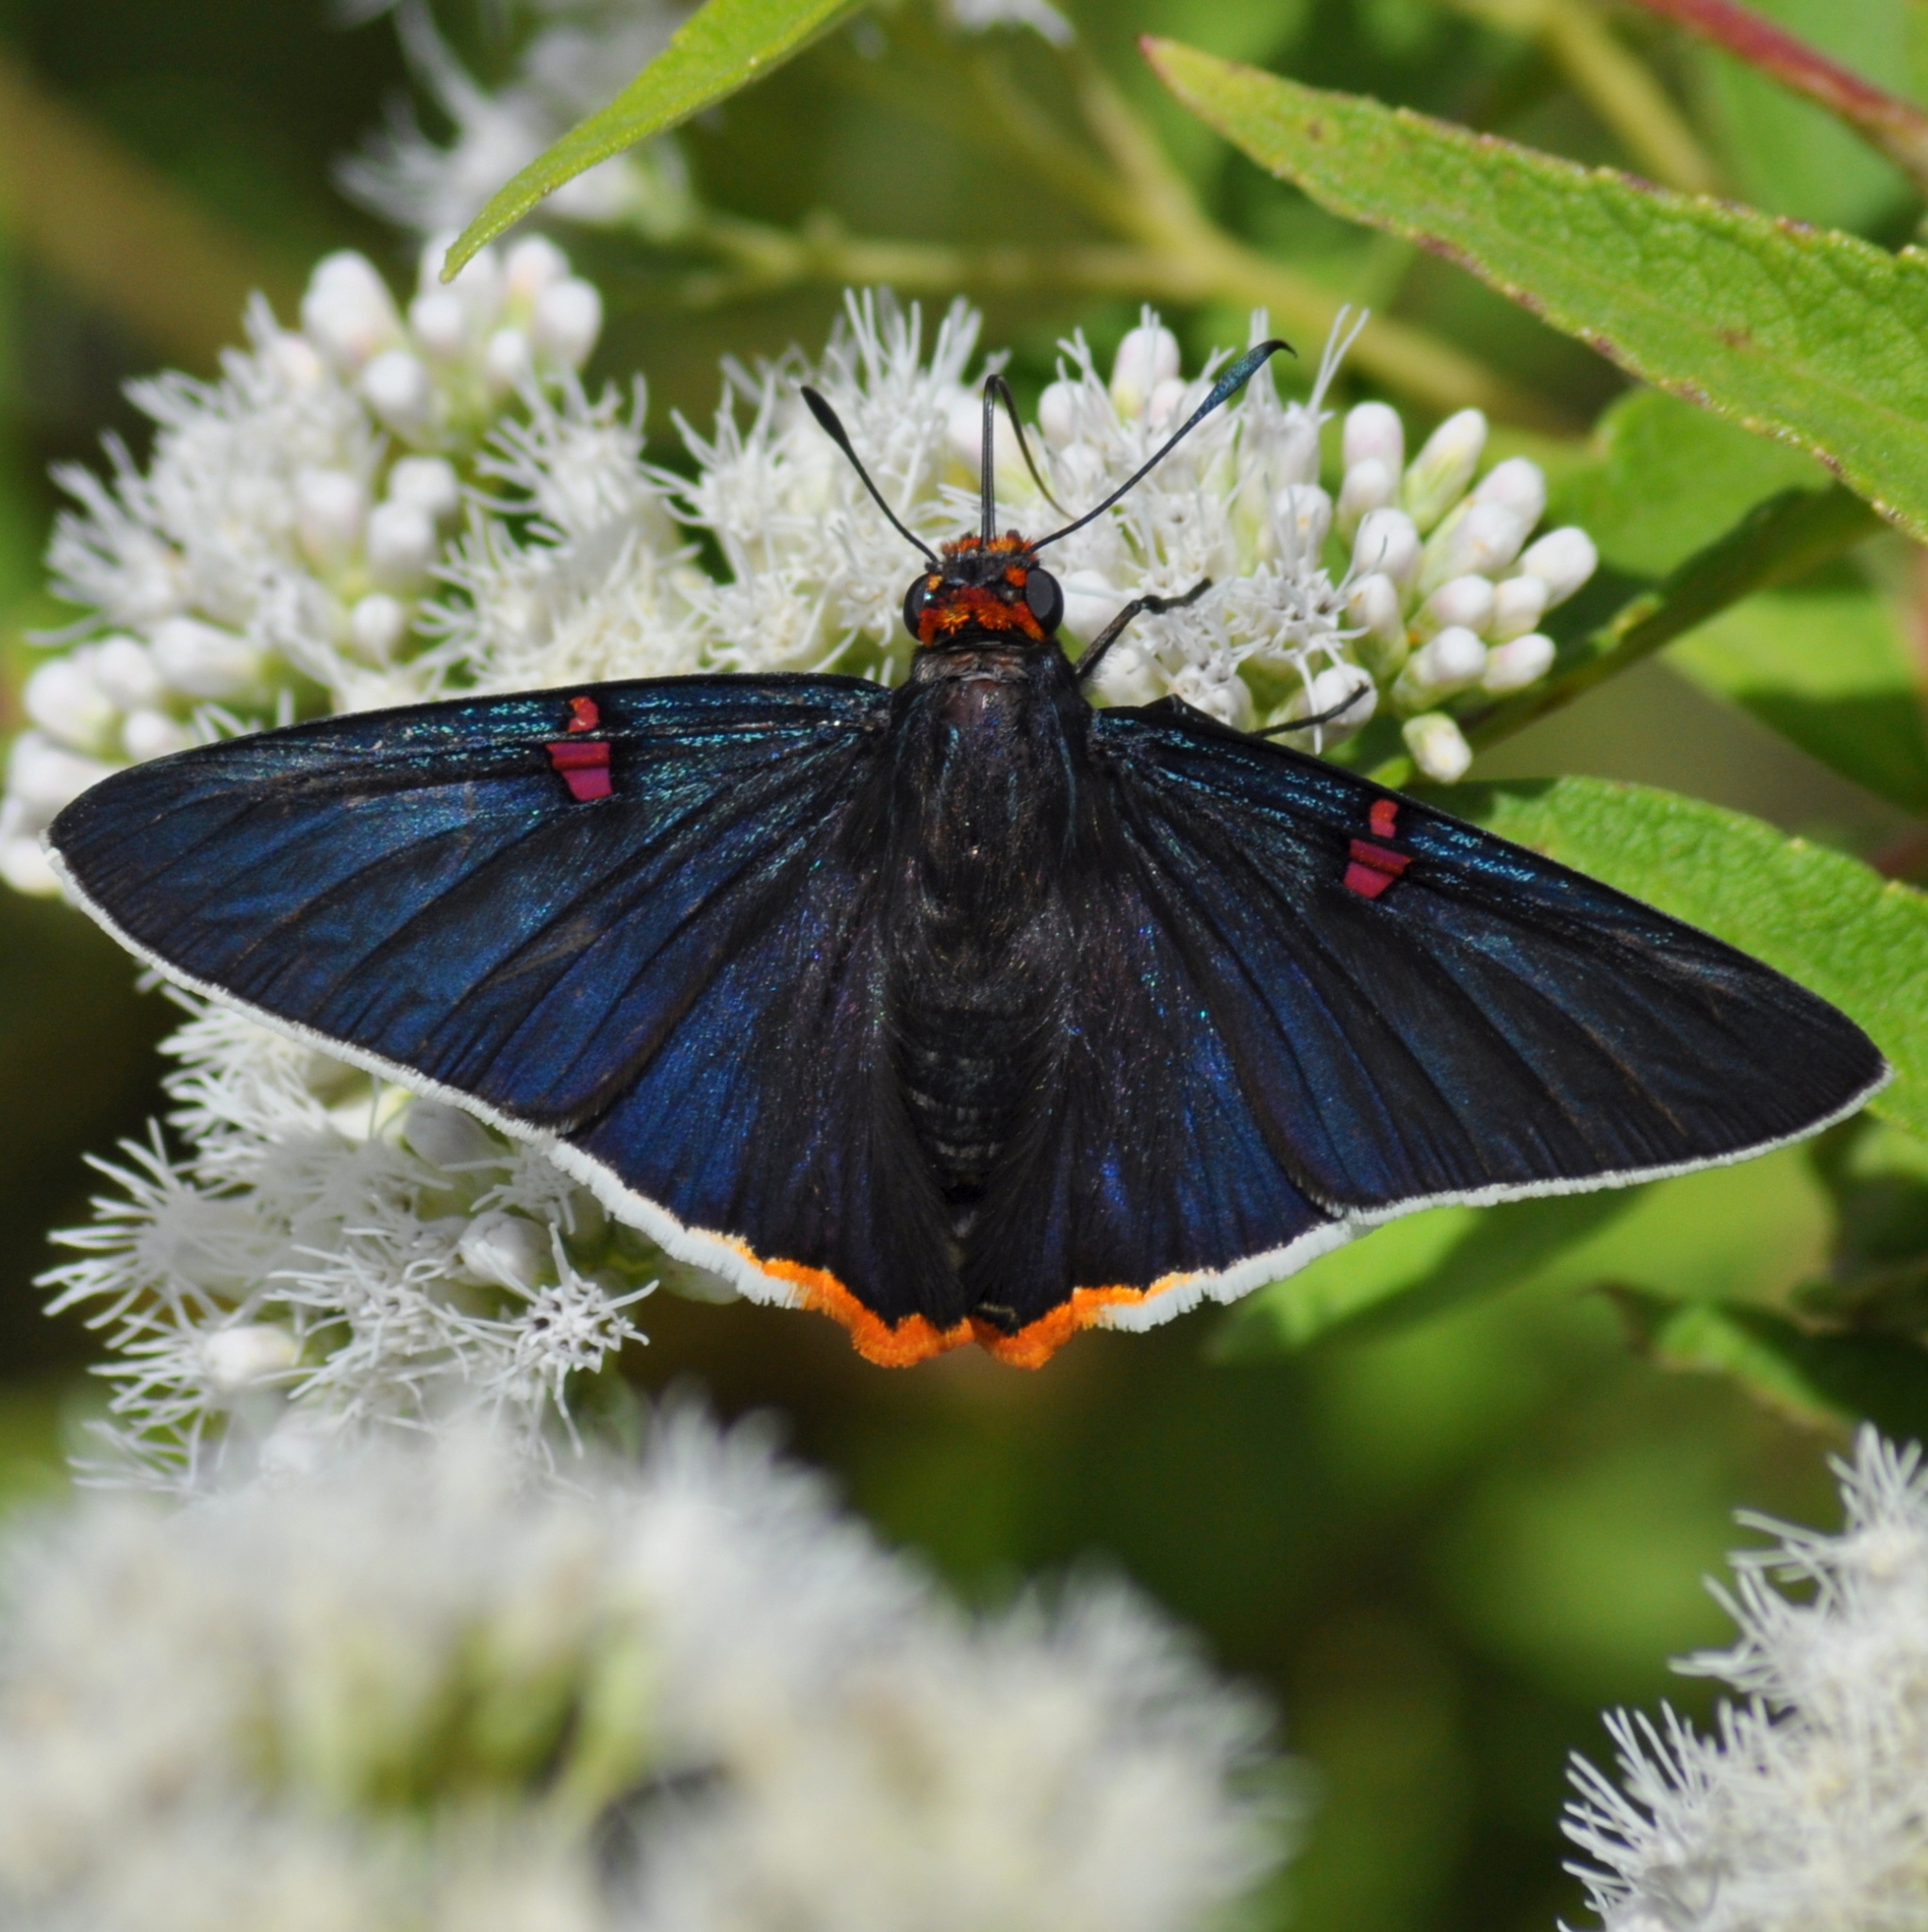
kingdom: Animalia
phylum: Arthropoda
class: Insecta
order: Lepidoptera
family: Hesperiidae
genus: Phocides
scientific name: Phocides polybius
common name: Guava skipper
